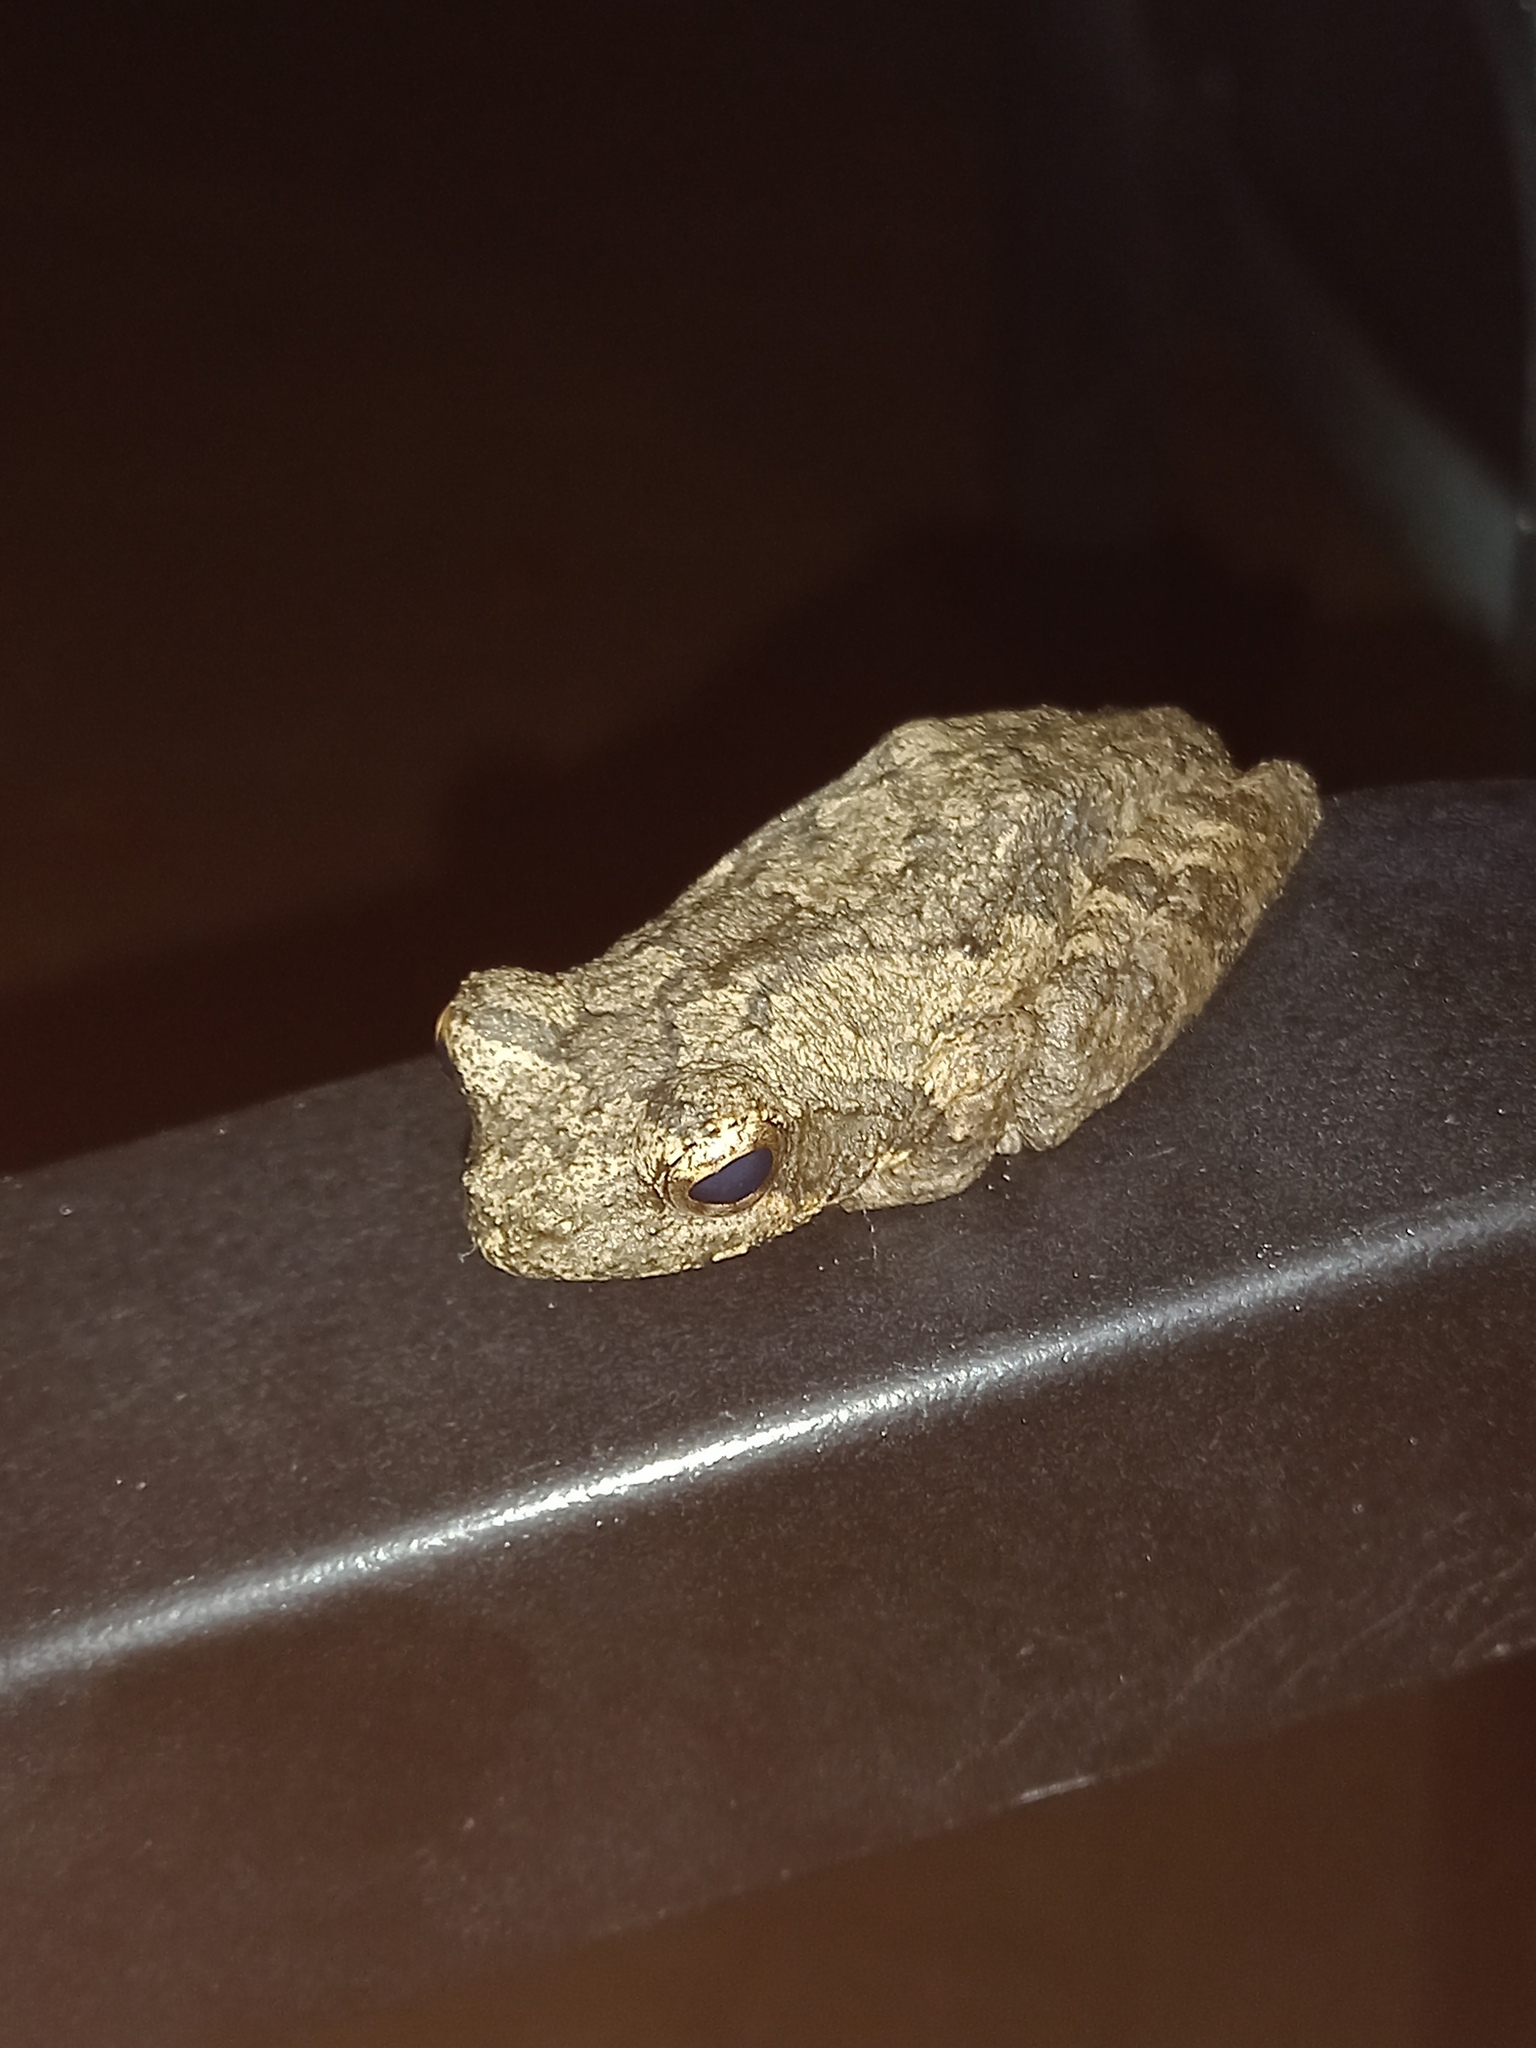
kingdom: Animalia
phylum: Chordata
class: Amphibia
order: Anura
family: Rhacophoridae
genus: Chiromantis
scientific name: Chiromantis xerampelina
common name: African gray treefrog
